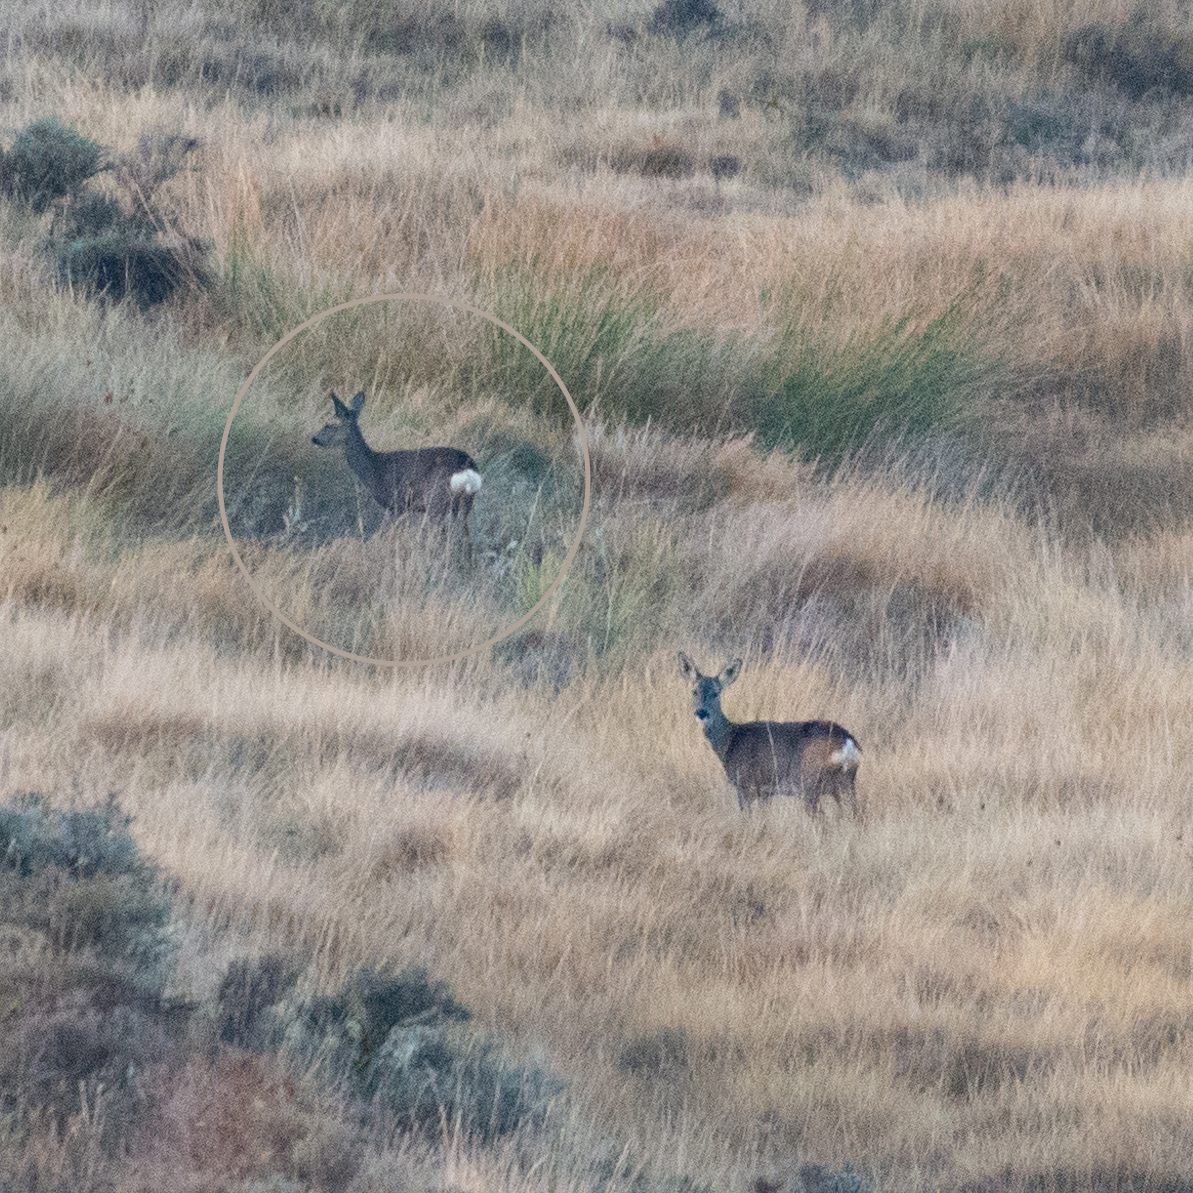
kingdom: Animalia
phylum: Chordata
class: Mammalia
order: Artiodactyla
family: Cervidae
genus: Capreolus
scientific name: Capreolus capreolus
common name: Western roe deer
